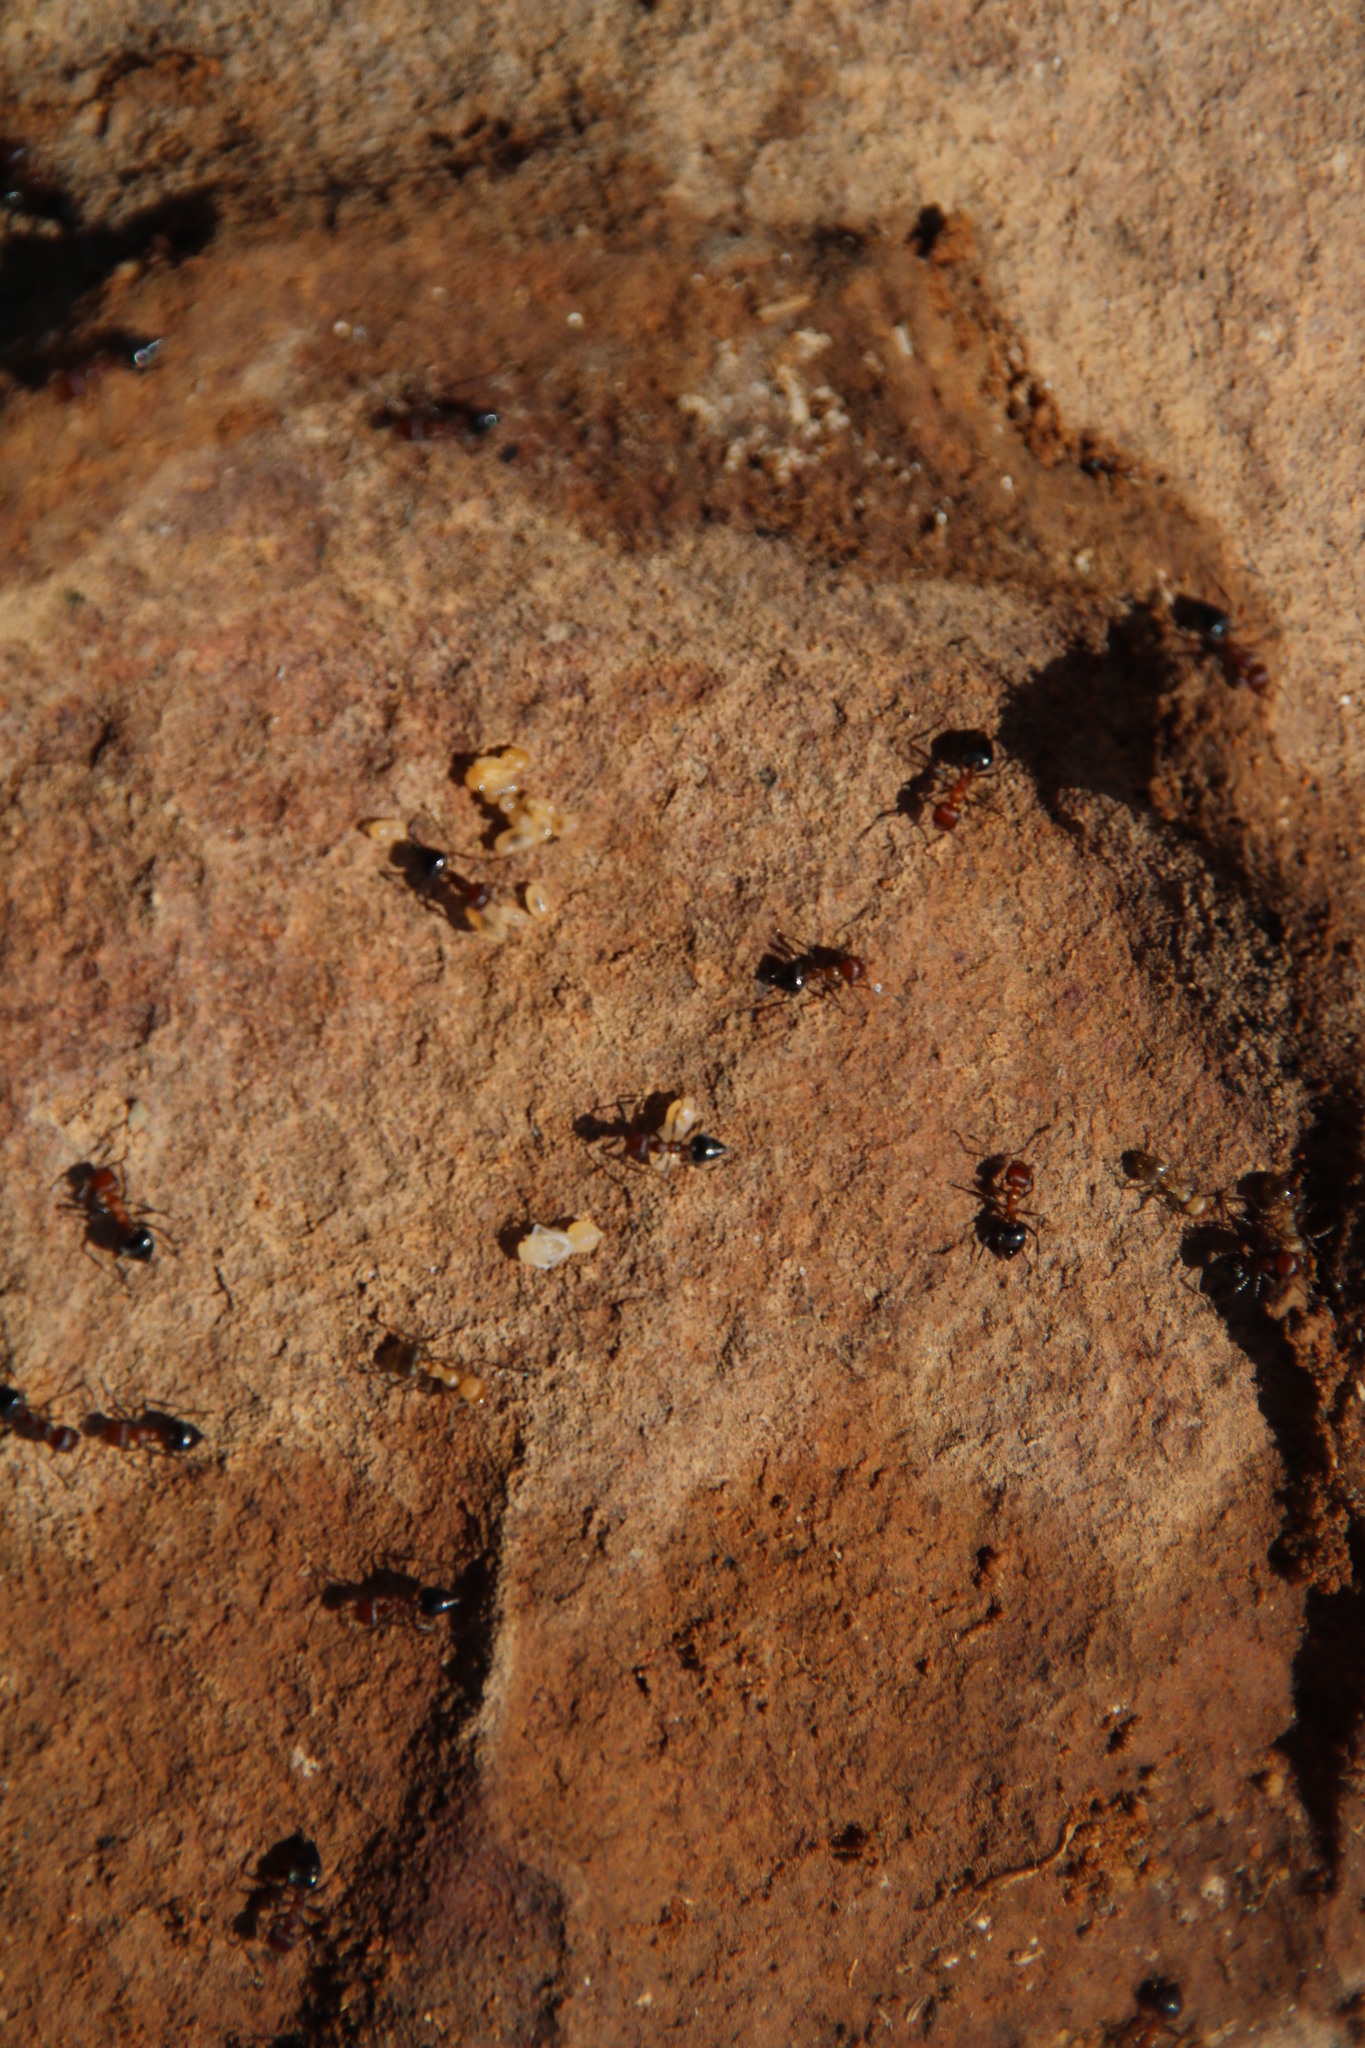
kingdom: Animalia
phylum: Arthropoda
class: Insecta
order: Hymenoptera
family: Formicidae
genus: Crematogaster
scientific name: Crematogaster melanogaster
